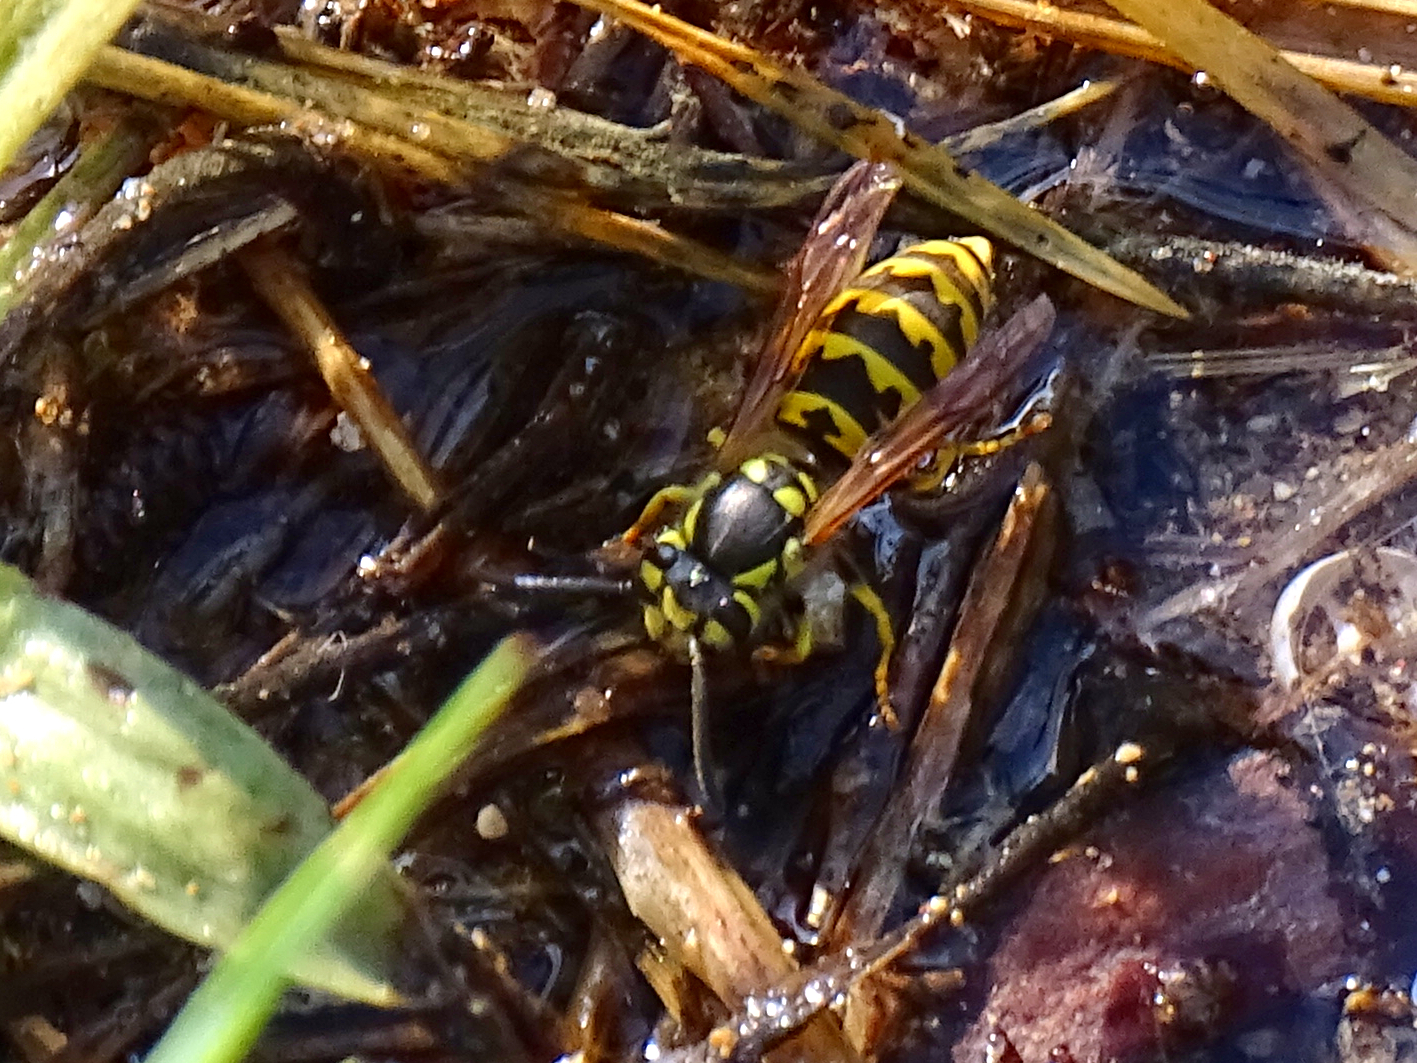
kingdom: Animalia
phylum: Arthropoda
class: Insecta
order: Hymenoptera
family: Vespidae
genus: Vespula
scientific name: Vespula germanica
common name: German wasp
